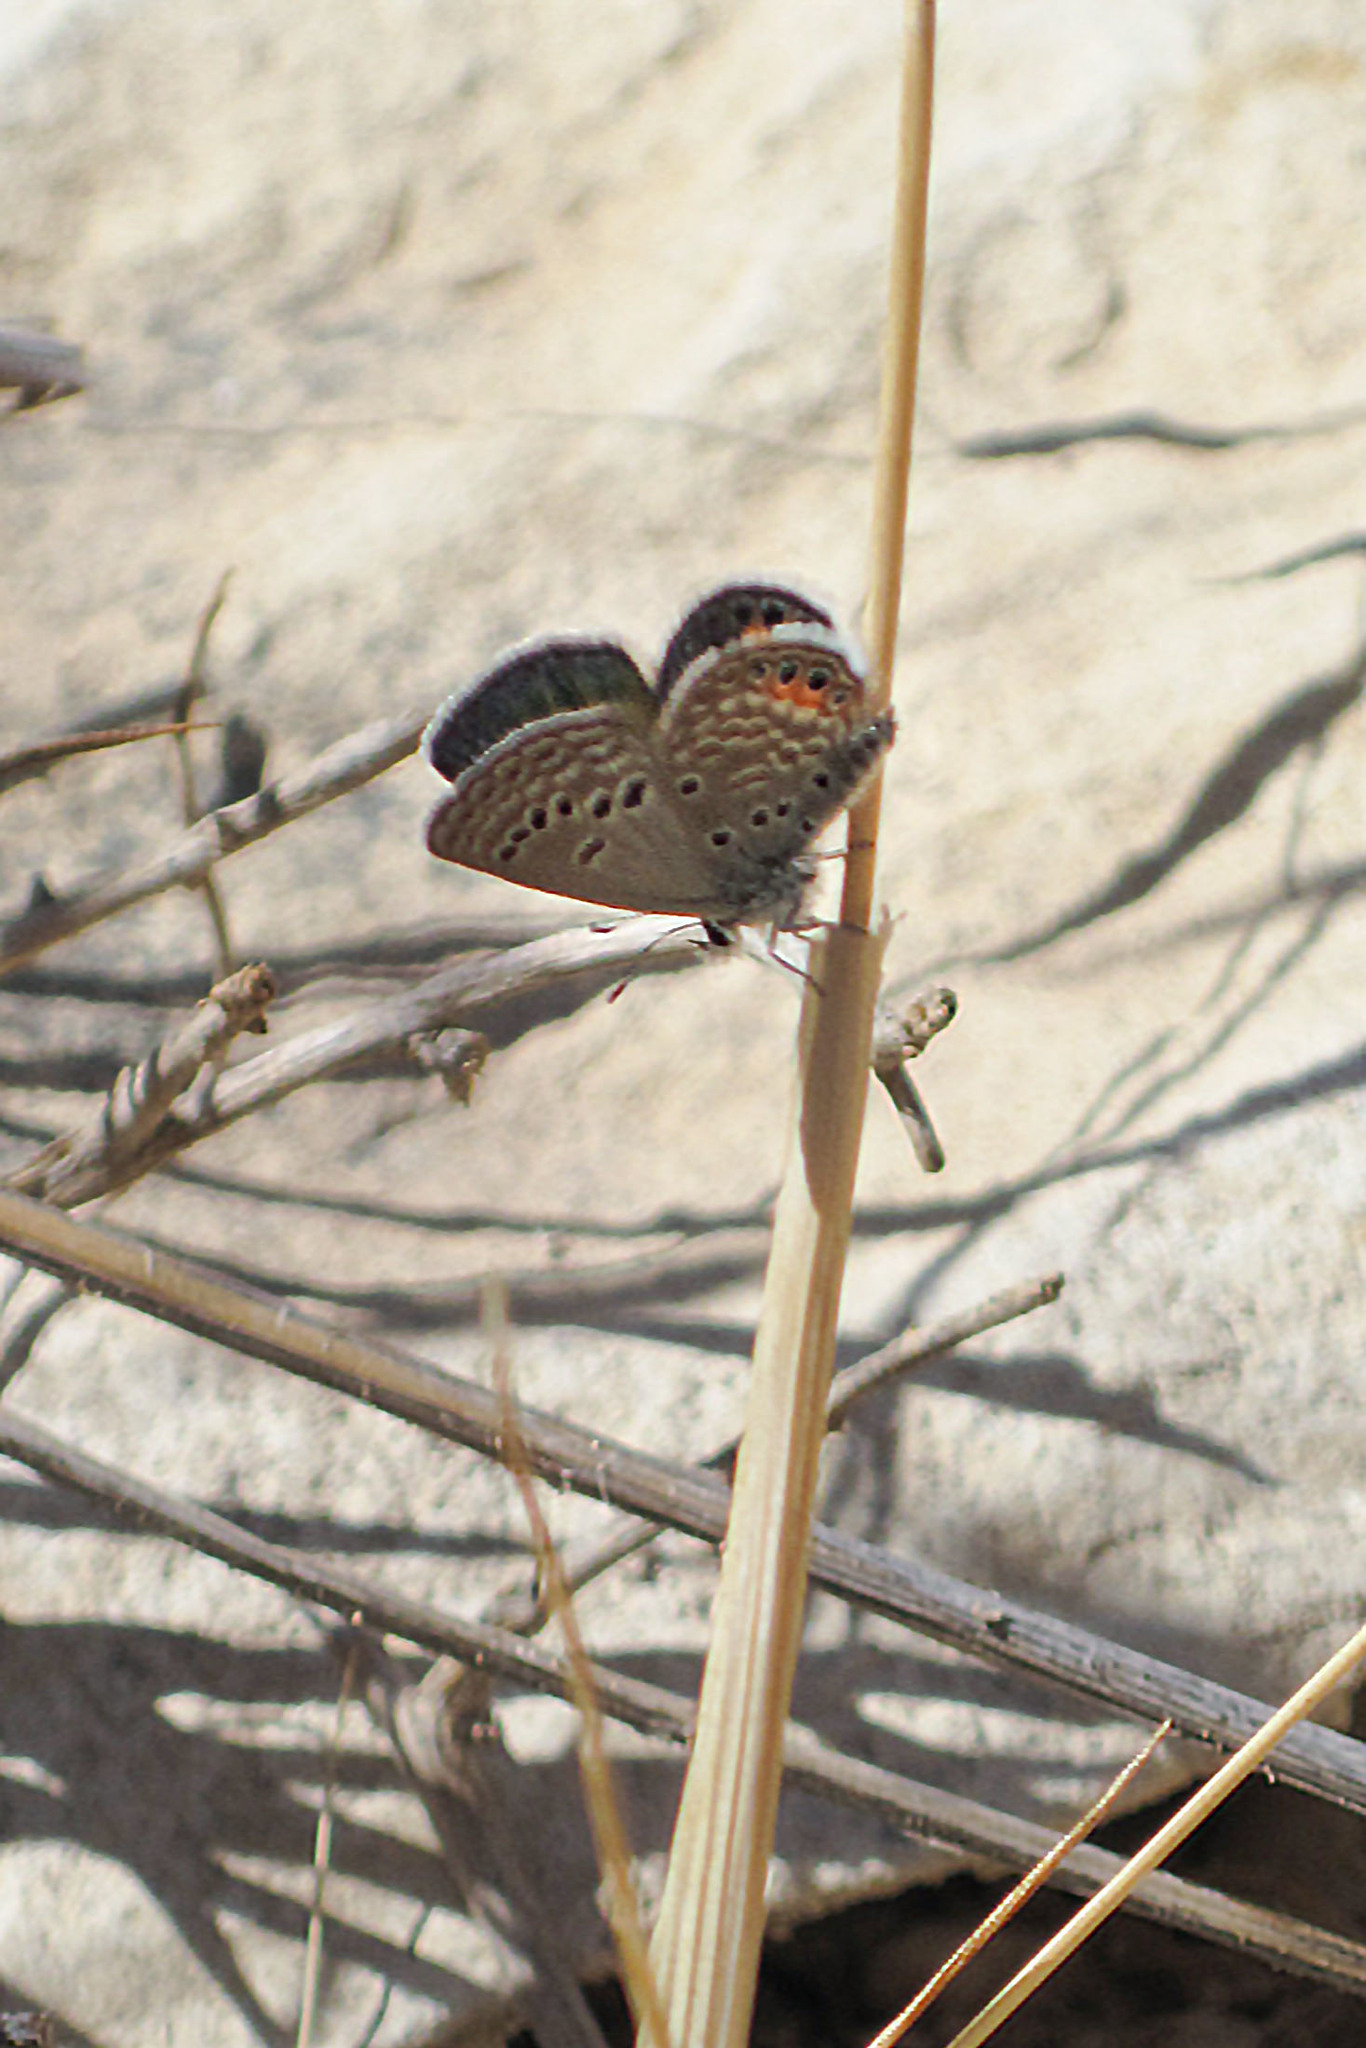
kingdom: Animalia
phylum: Arthropoda
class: Insecta
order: Lepidoptera
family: Lycaenidae
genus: Freyeria
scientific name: Freyeria trochylus
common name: Grass jewel
